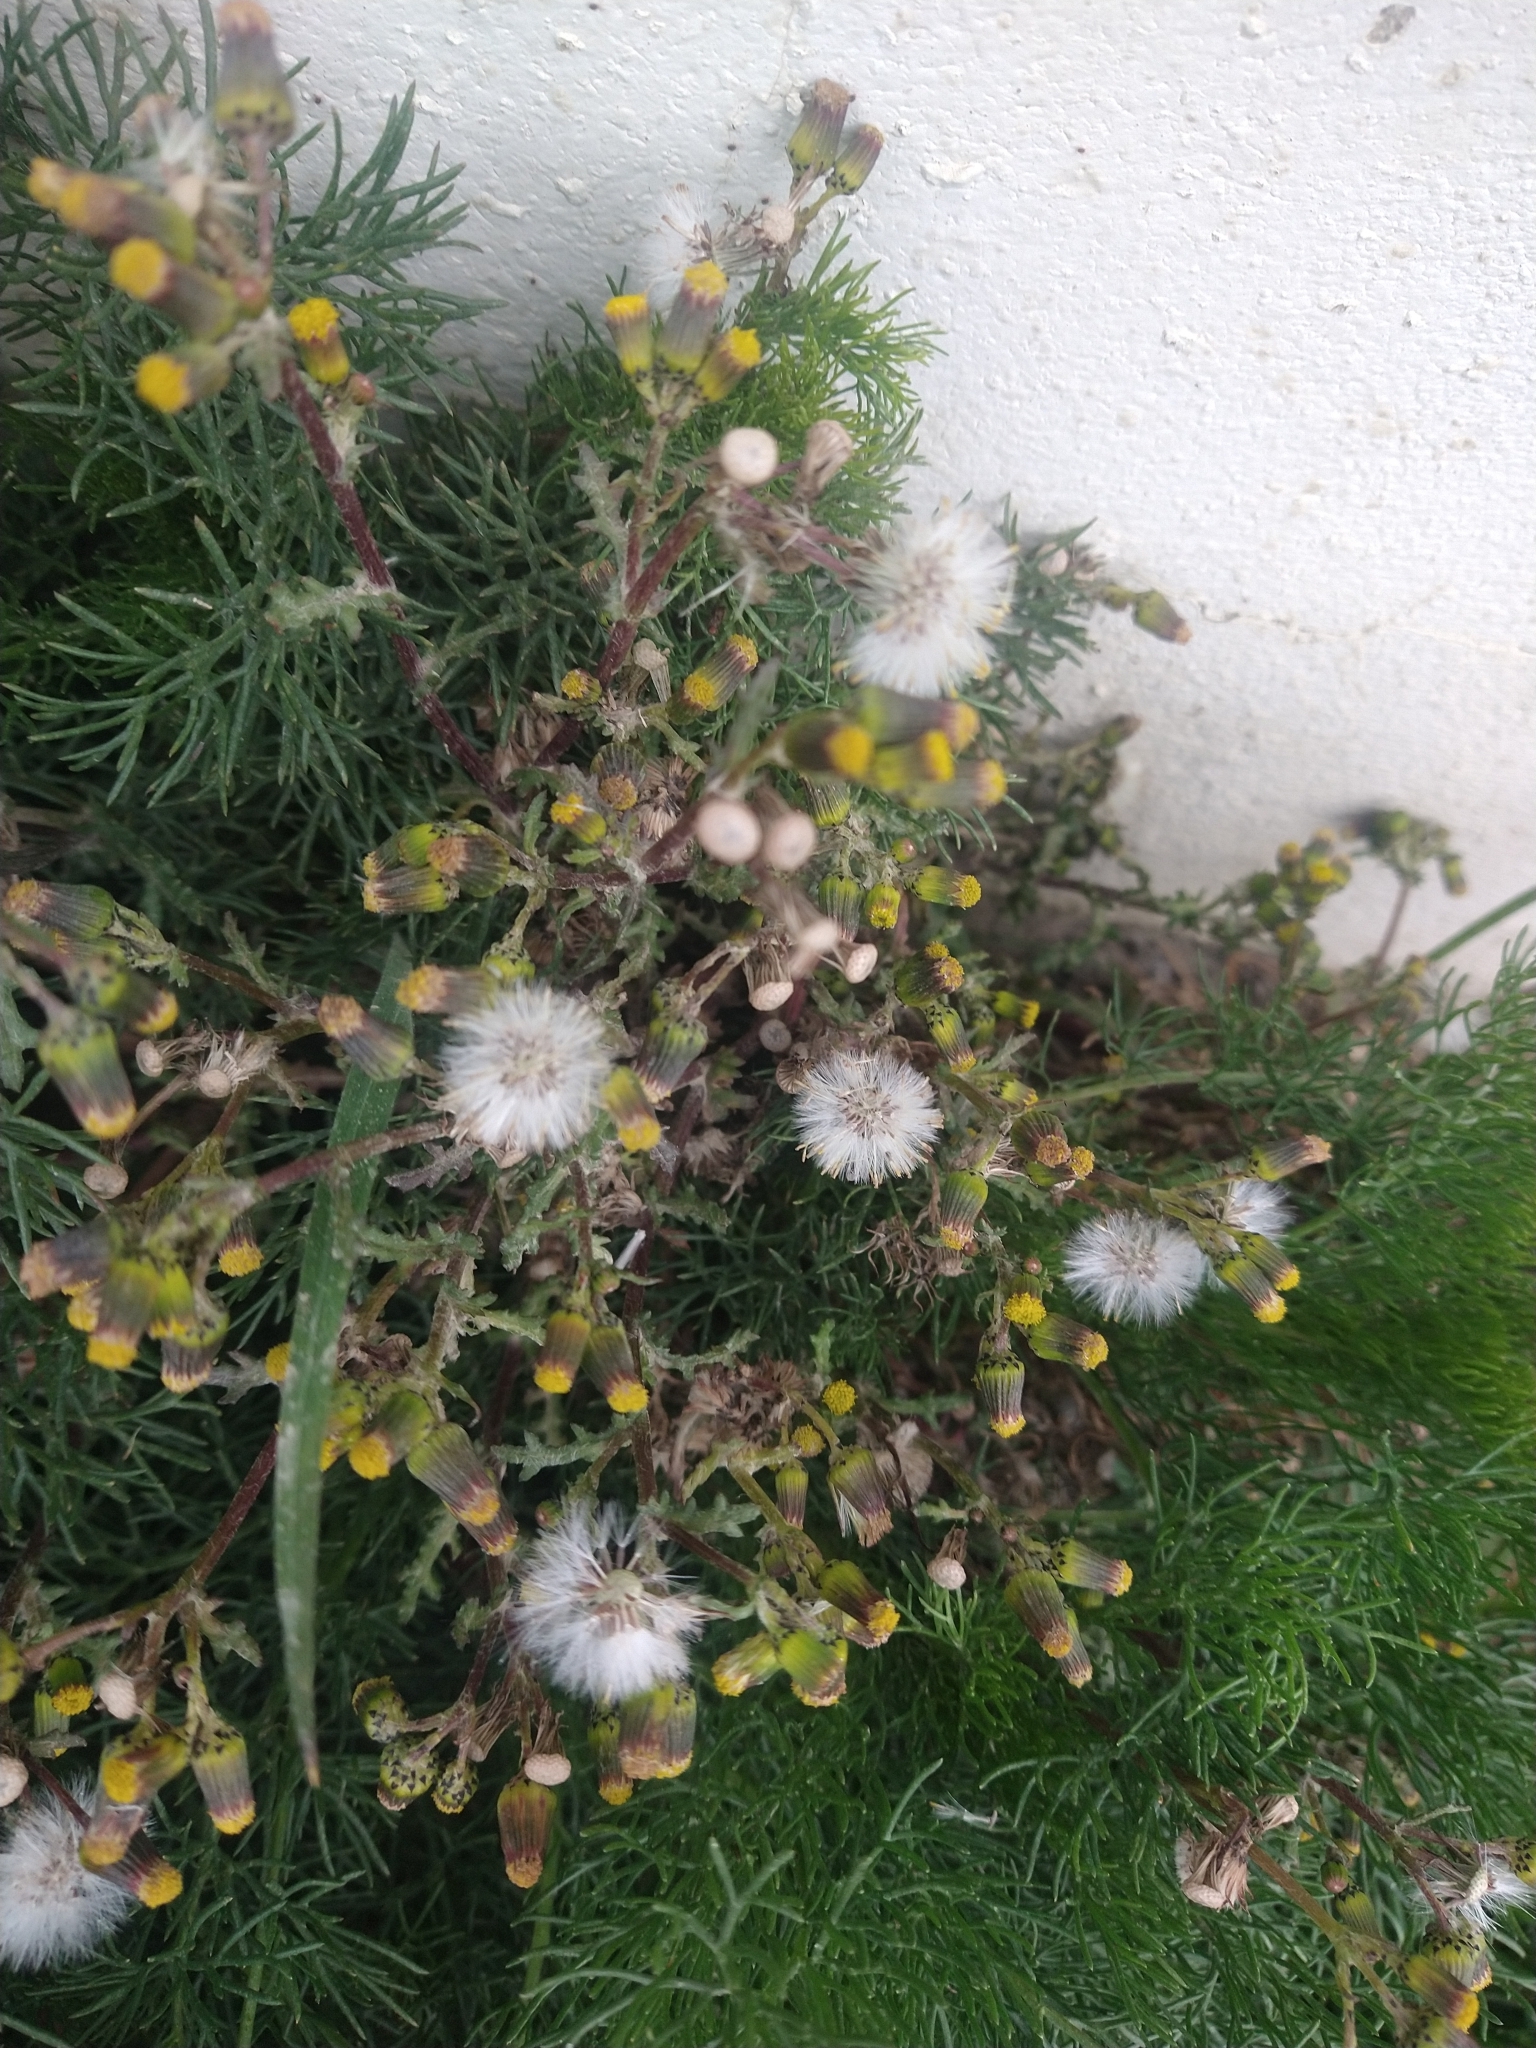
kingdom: Plantae
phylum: Tracheophyta
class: Magnoliopsida
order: Asterales
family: Asteraceae
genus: Senecio
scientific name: Senecio vulgaris
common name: Old-man-in-the-spring
